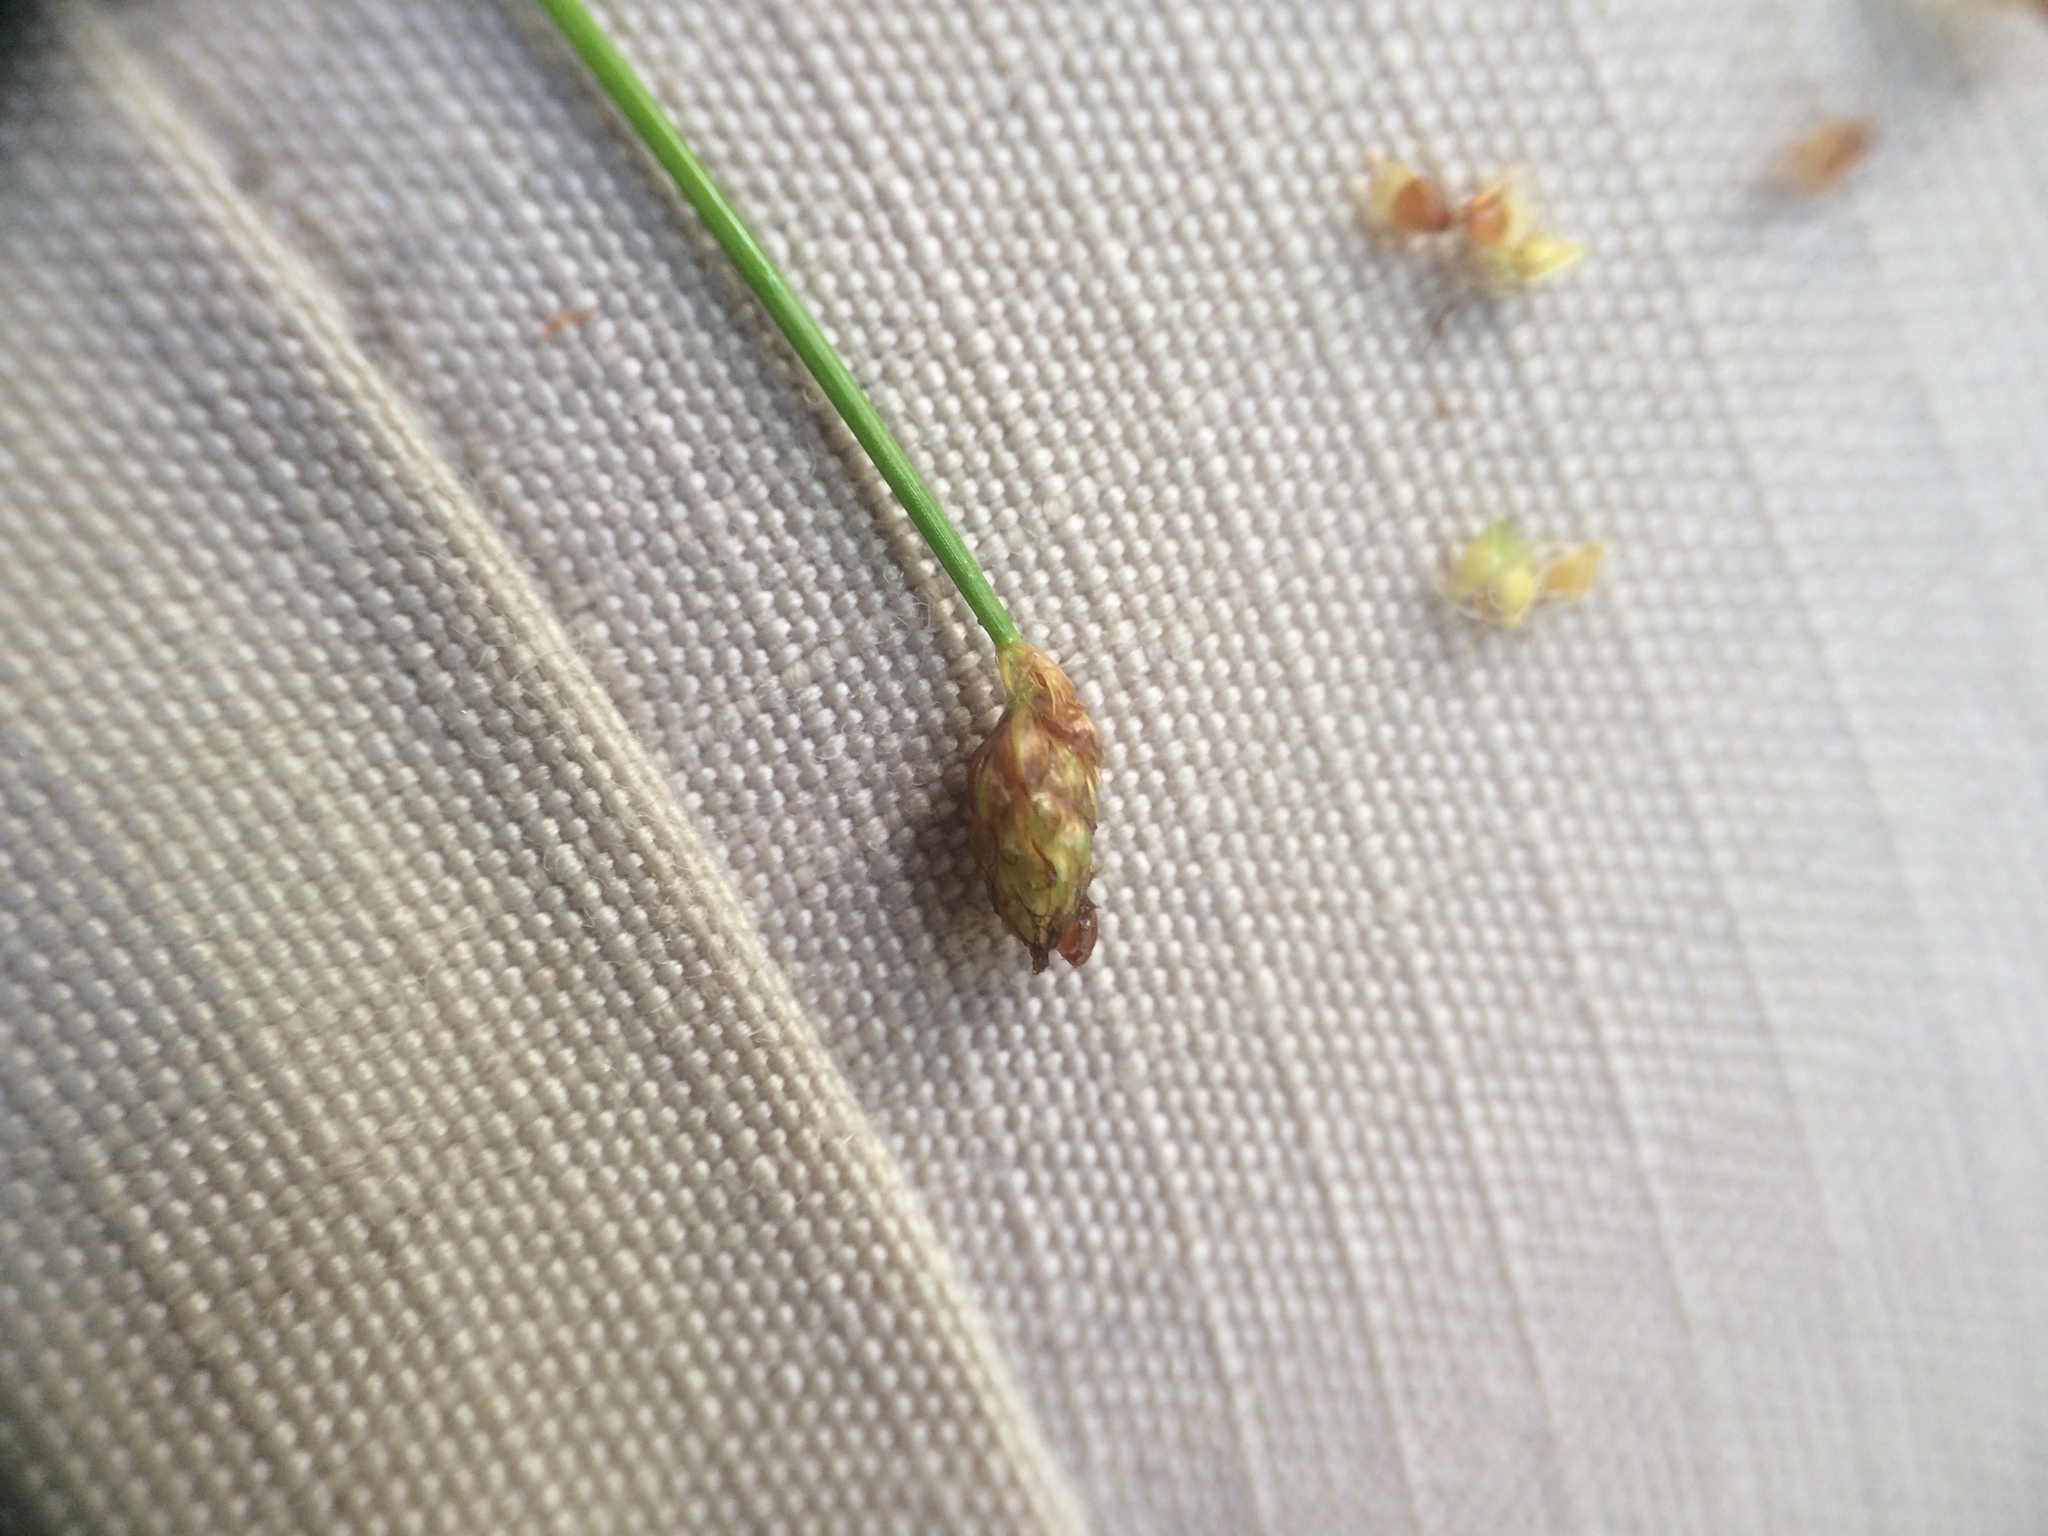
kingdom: Plantae
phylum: Tracheophyta
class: Liliopsida
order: Poales
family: Cyperaceae
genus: Eleocharis
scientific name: Eleocharis obtusa
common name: Blunt spikerush
